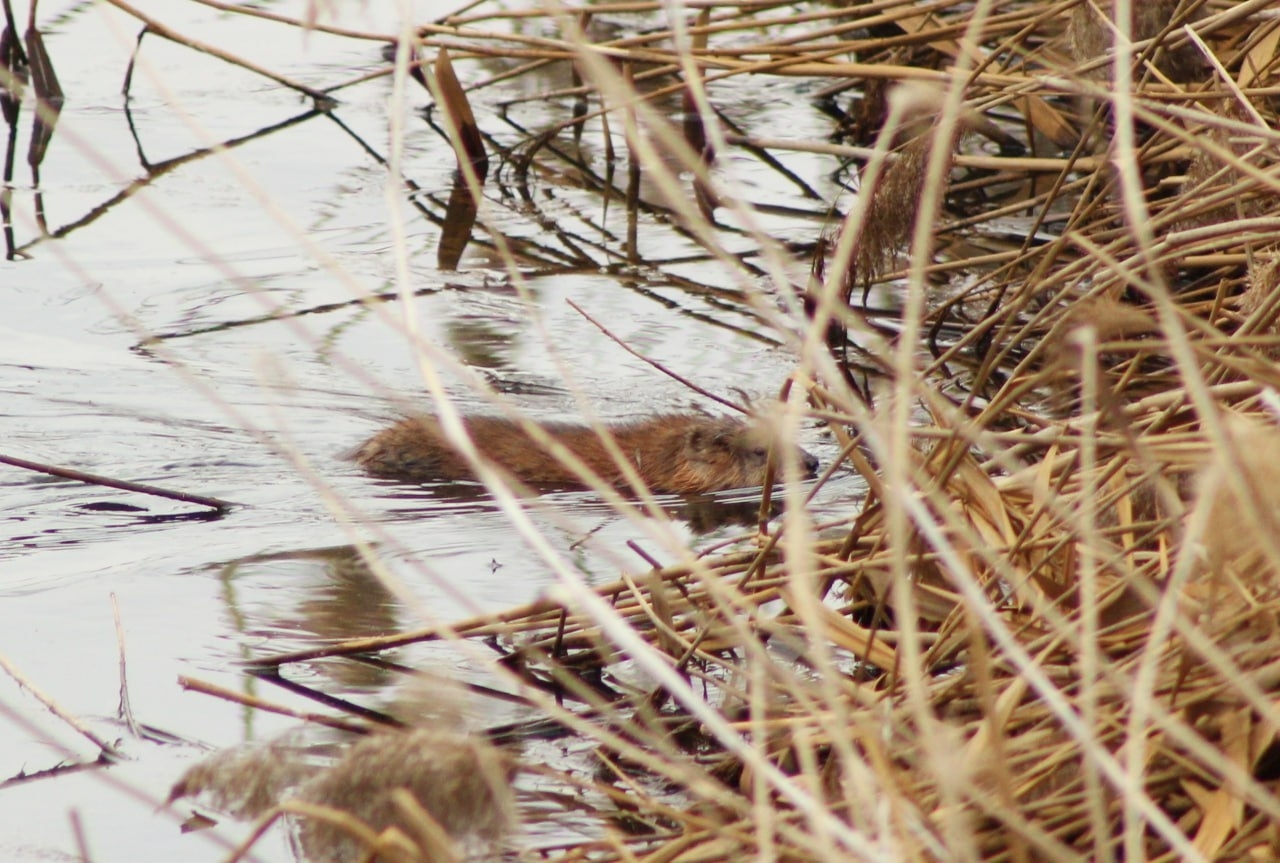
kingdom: Animalia
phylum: Chordata
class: Mammalia
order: Rodentia
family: Cricetidae
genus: Ondatra
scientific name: Ondatra zibethicus
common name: Muskrat
